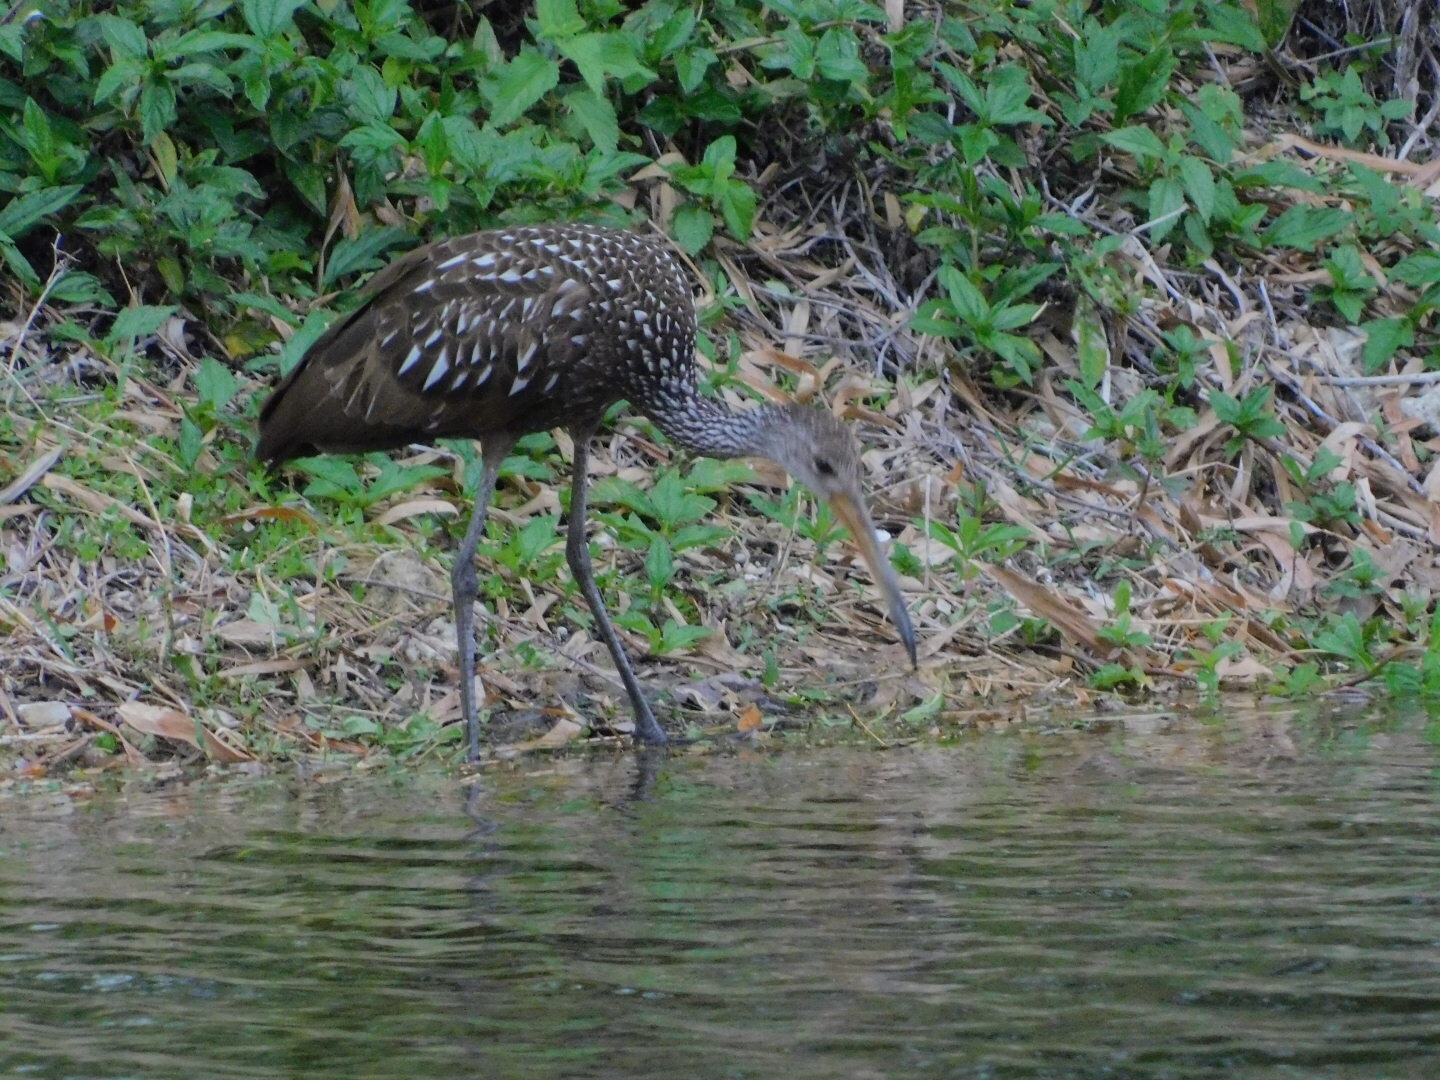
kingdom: Animalia
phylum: Chordata
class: Aves
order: Gruiformes
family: Aramidae
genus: Aramus
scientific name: Aramus guarauna
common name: Limpkin
